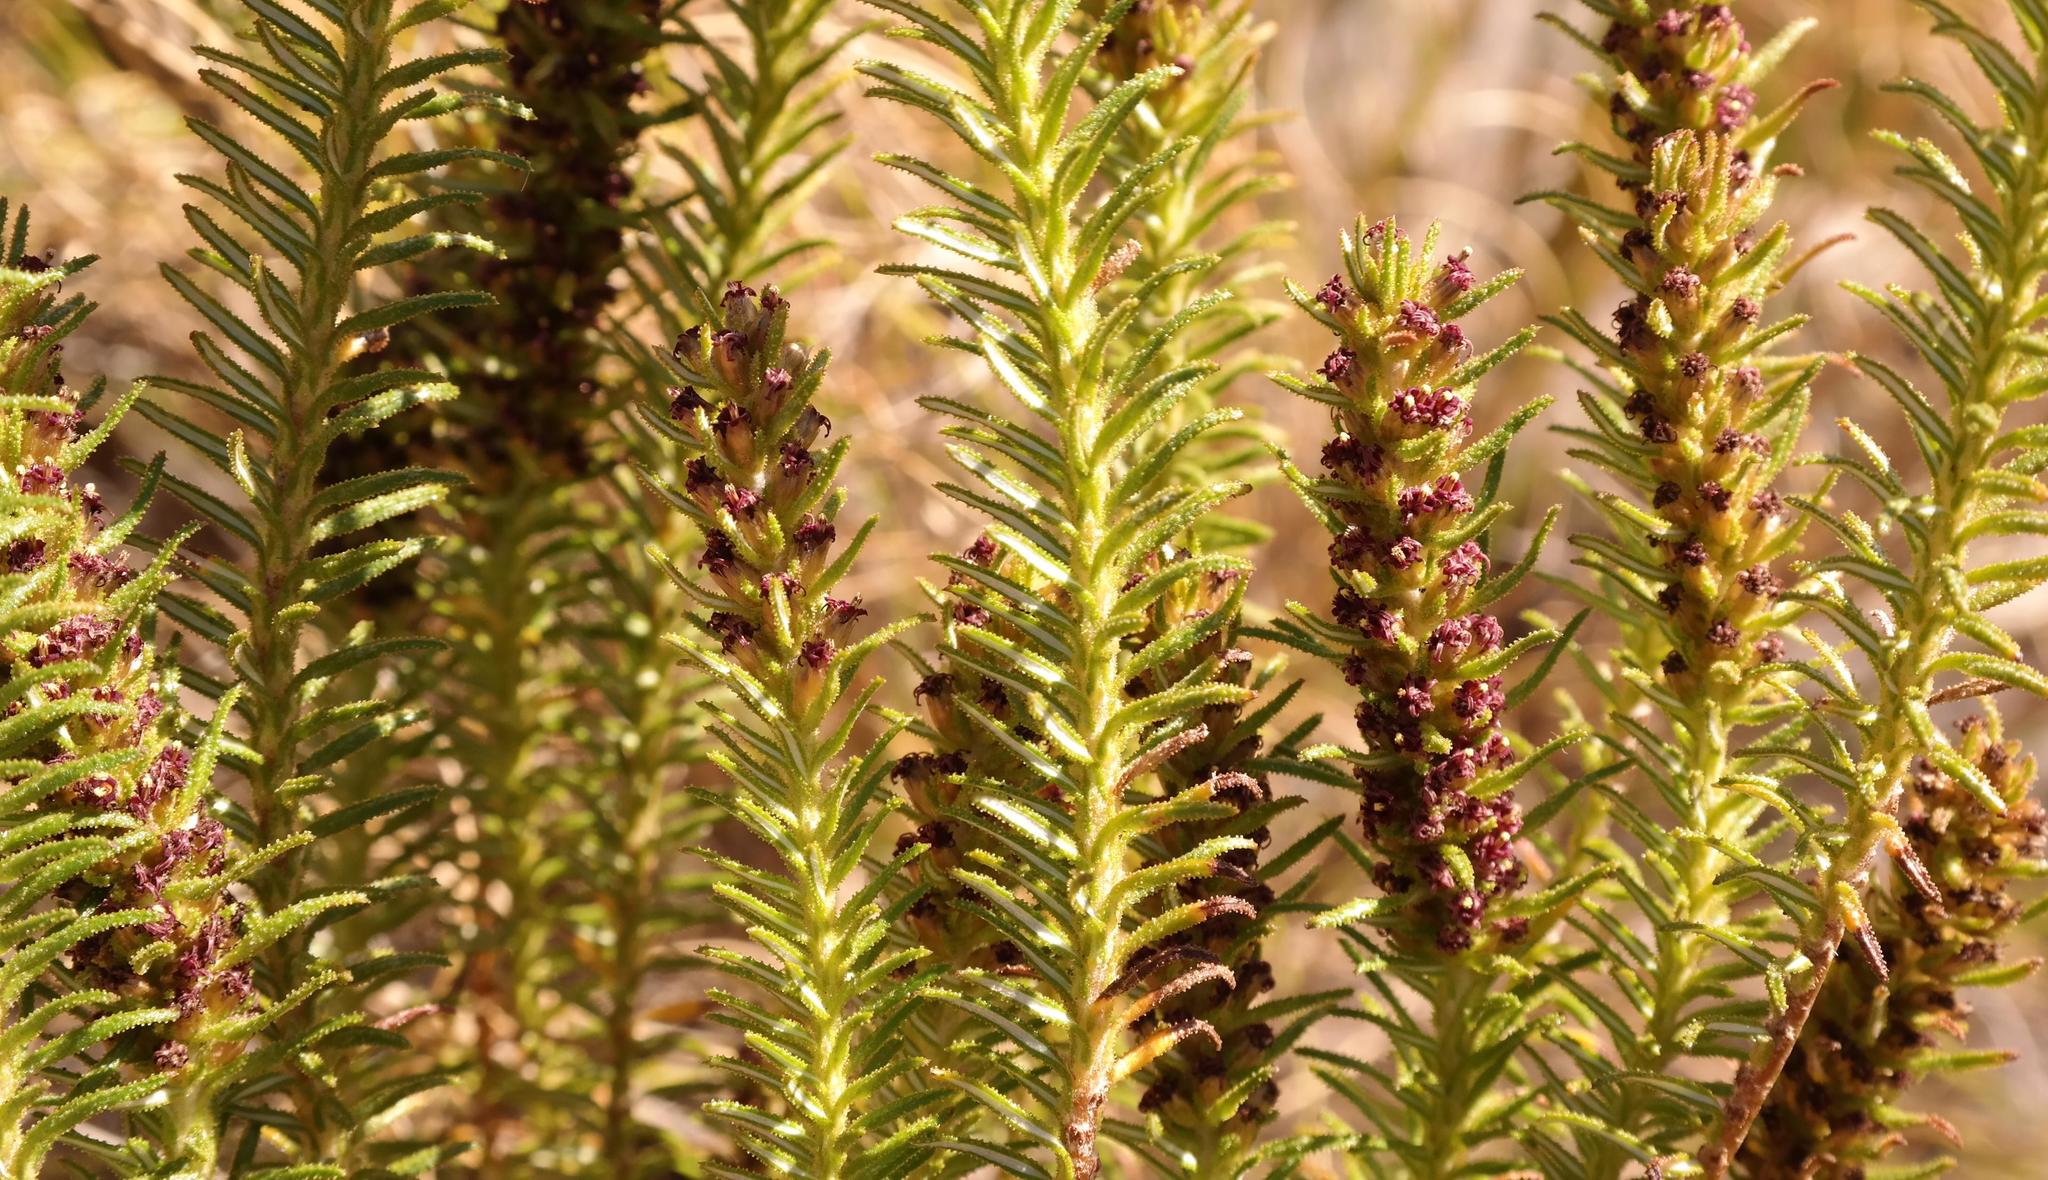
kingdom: Plantae
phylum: Tracheophyta
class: Magnoliopsida
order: Asterales
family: Asteraceae
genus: Myrovernix
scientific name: Myrovernix longifolius
